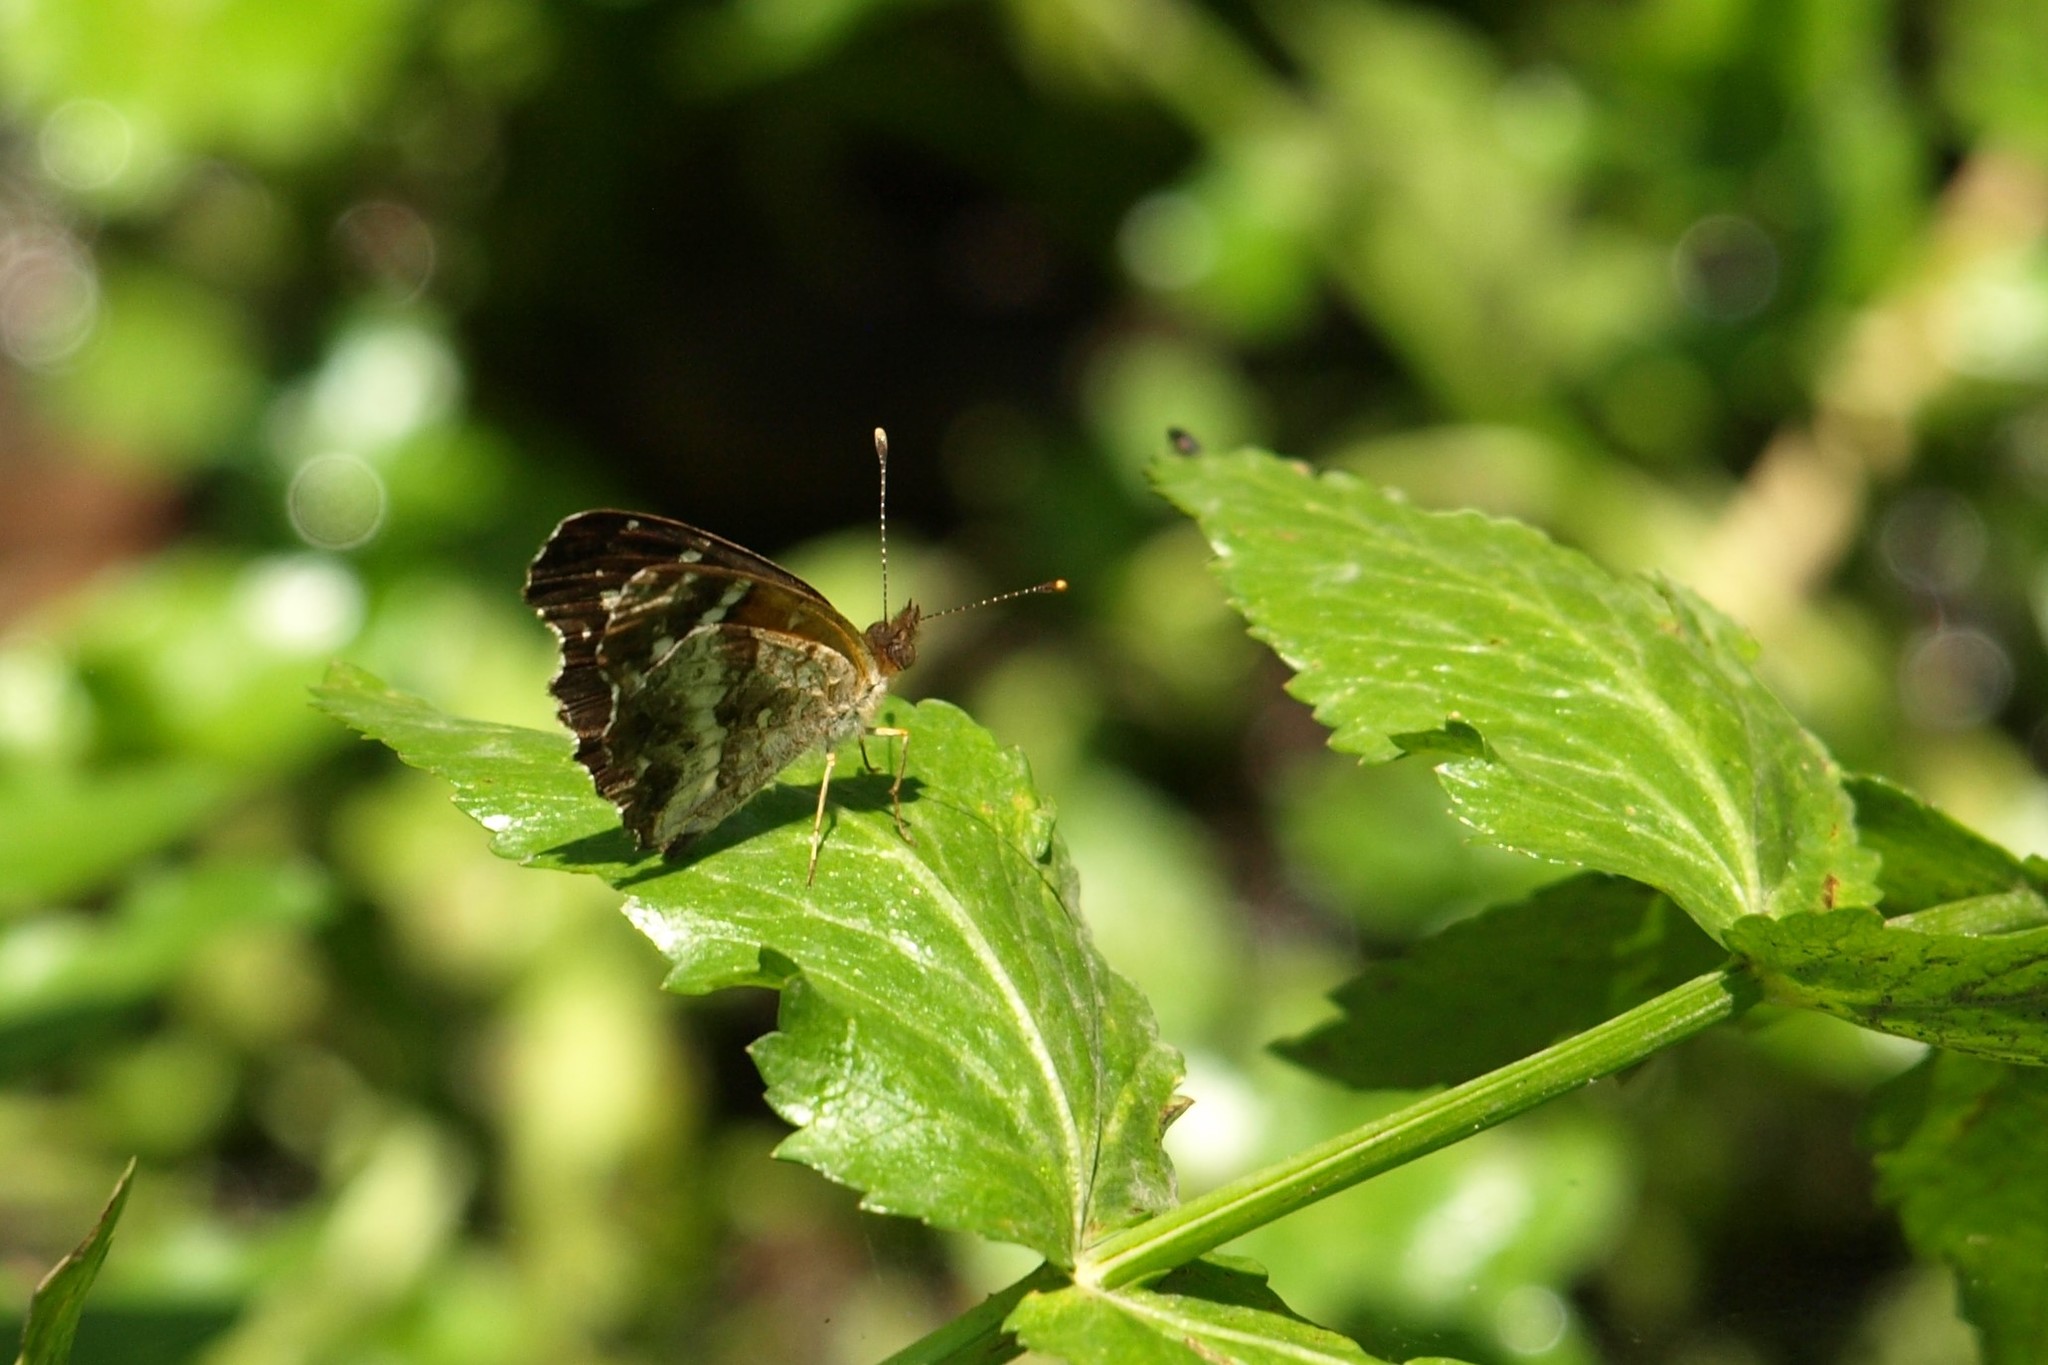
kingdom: Animalia
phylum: Arthropoda
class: Insecta
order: Lepidoptera
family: Nymphalidae
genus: Anthanassa
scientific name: Anthanassa texana
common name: Texan crescent
